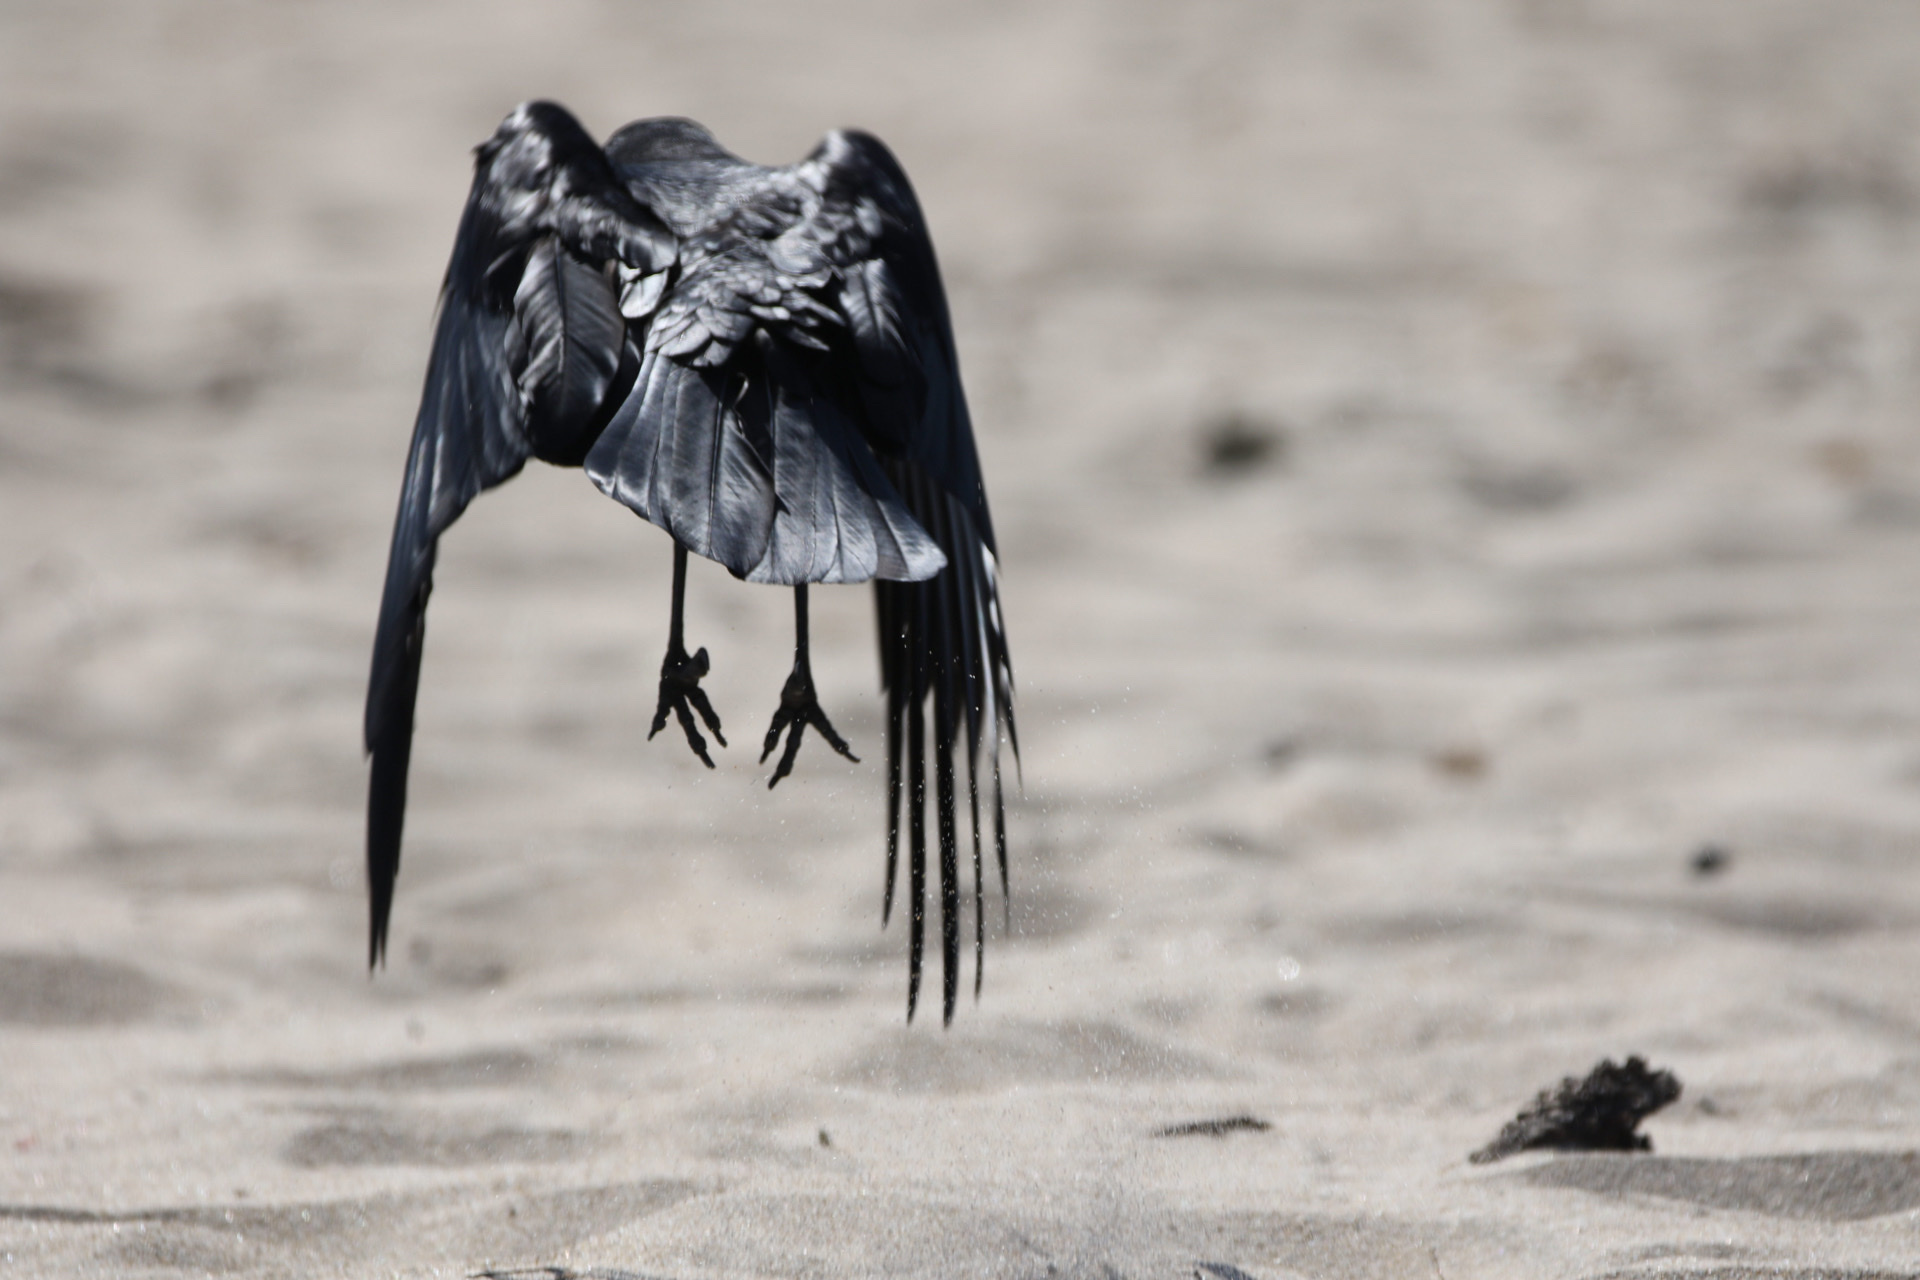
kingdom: Animalia
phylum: Chordata
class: Aves
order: Passeriformes
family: Corvidae
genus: Corvus
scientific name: Corvus corax
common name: Common raven
